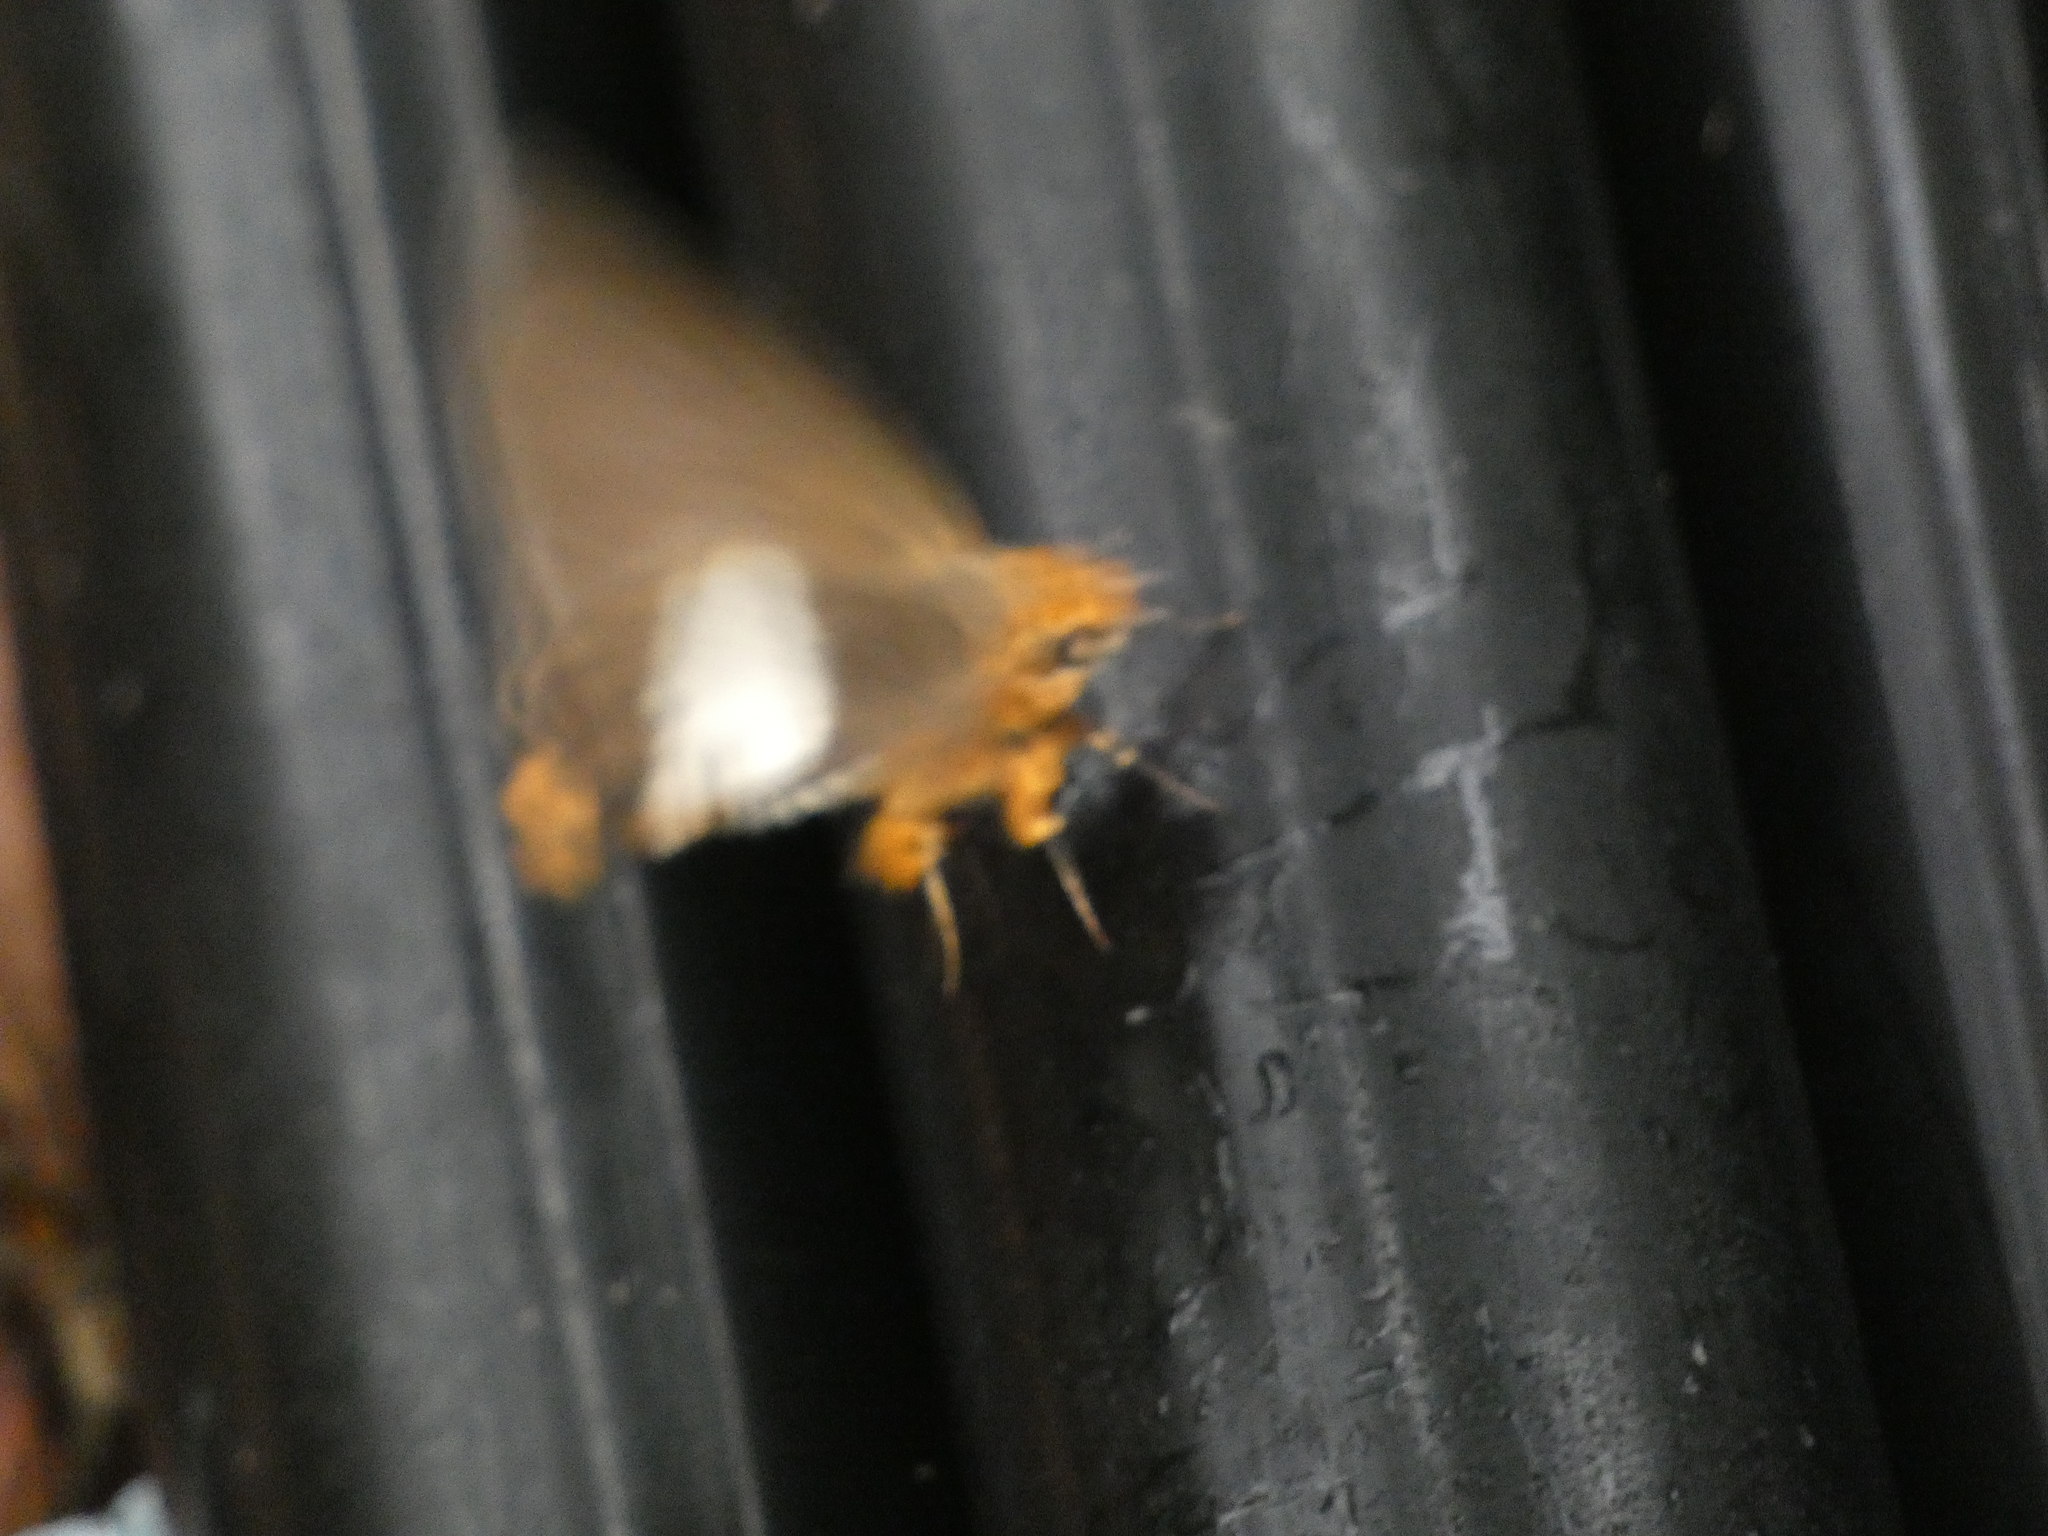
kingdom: Animalia
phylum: Arthropoda
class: Insecta
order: Lepidoptera
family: Hesperiidae
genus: Coeliades
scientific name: Coeliades pisistratus
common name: Two-pip policeman
